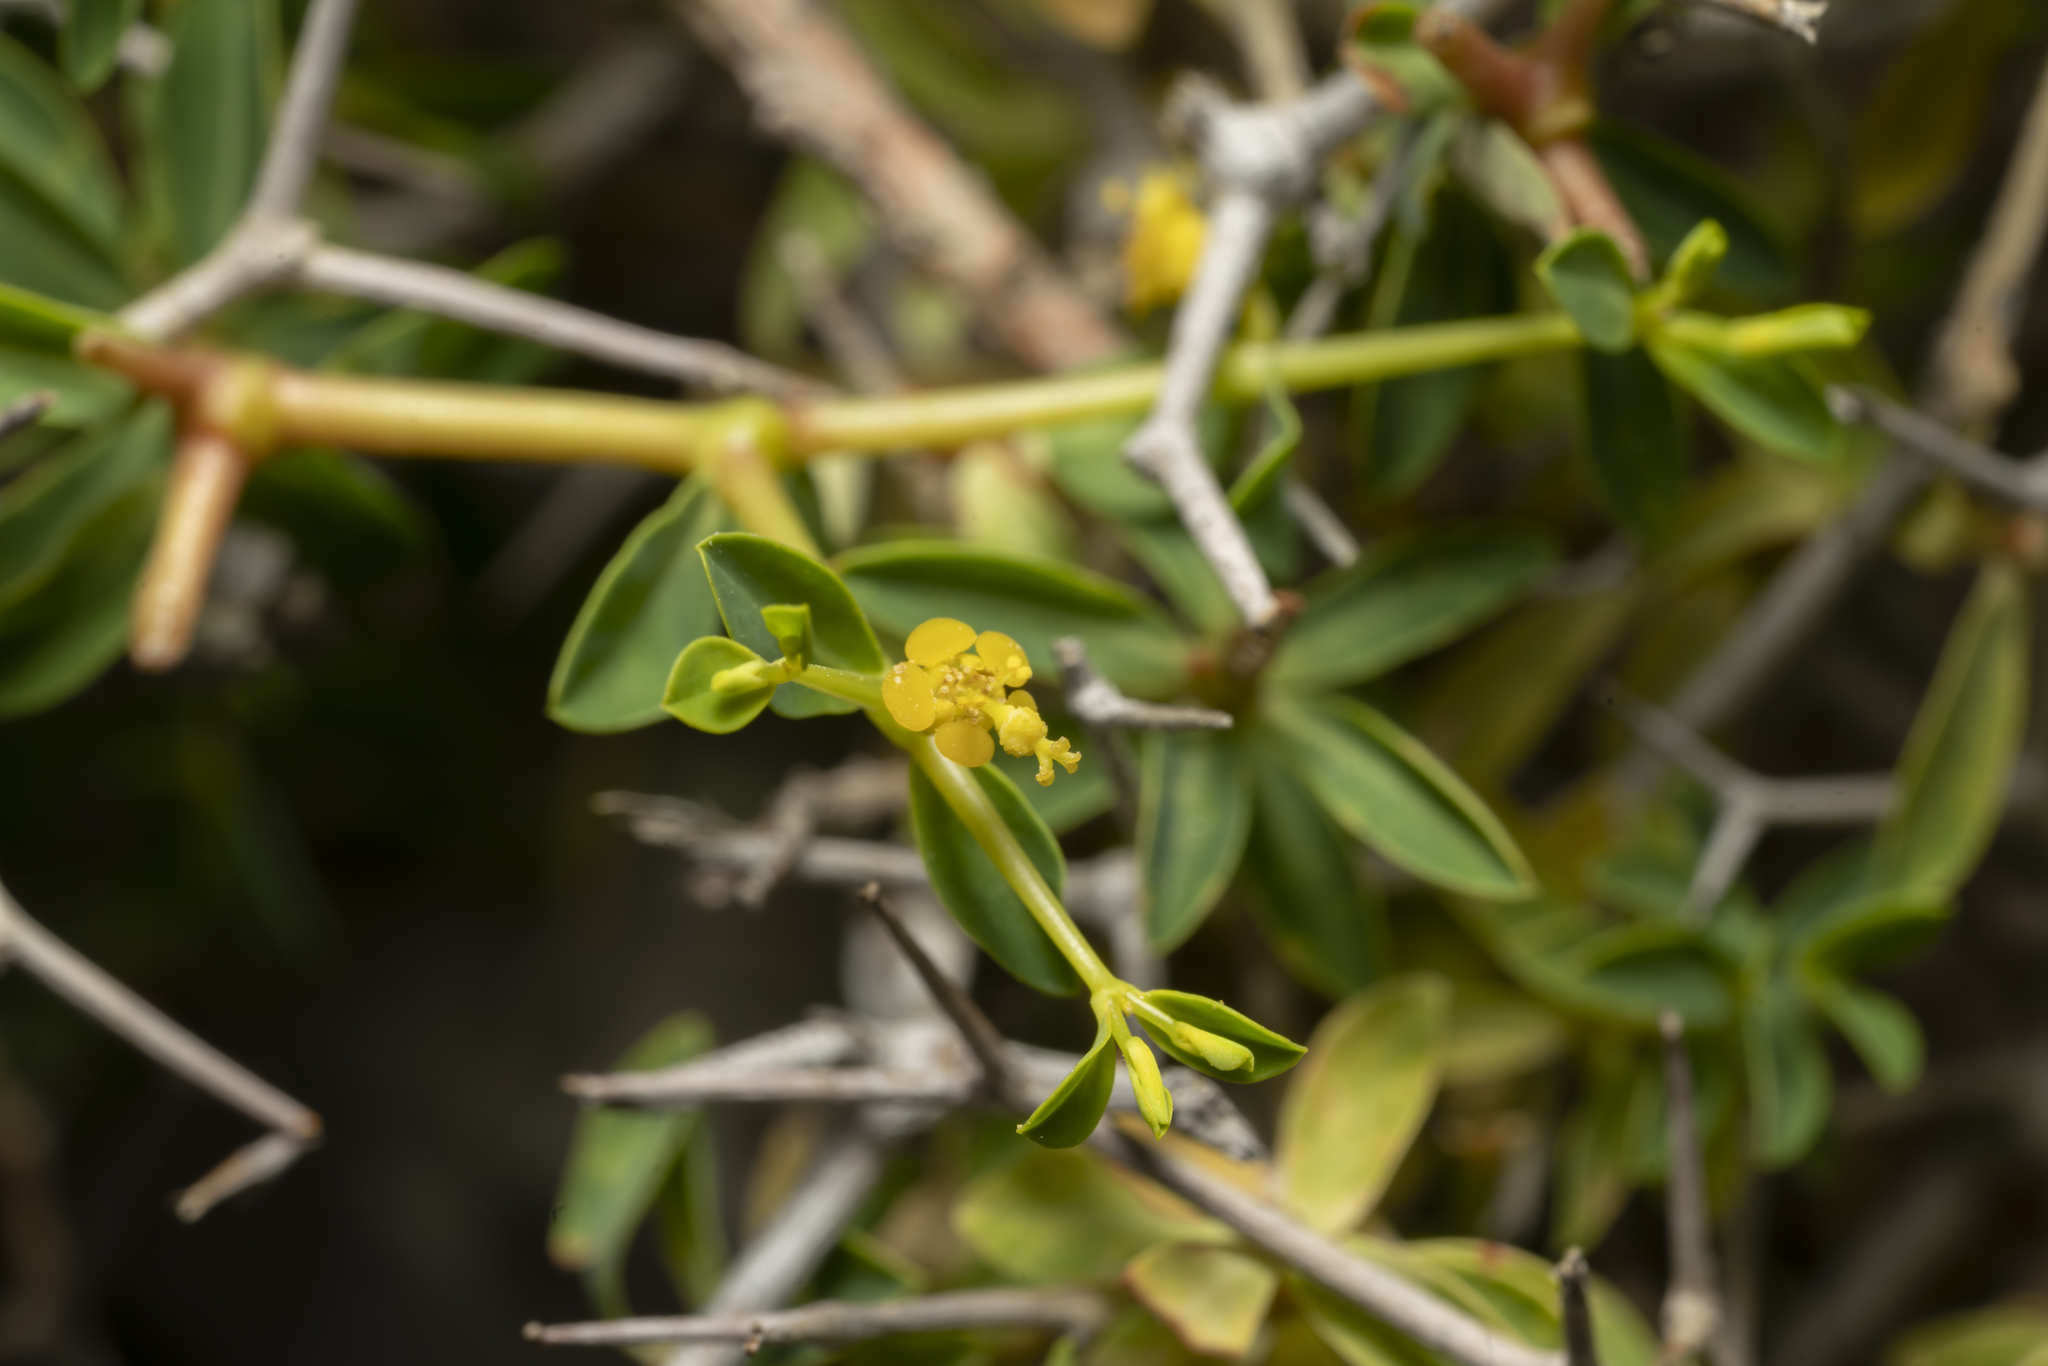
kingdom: Plantae
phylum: Tracheophyta
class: Magnoliopsida
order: Malpighiales
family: Euphorbiaceae
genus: Euphorbia
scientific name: Euphorbia acanthothamnos
